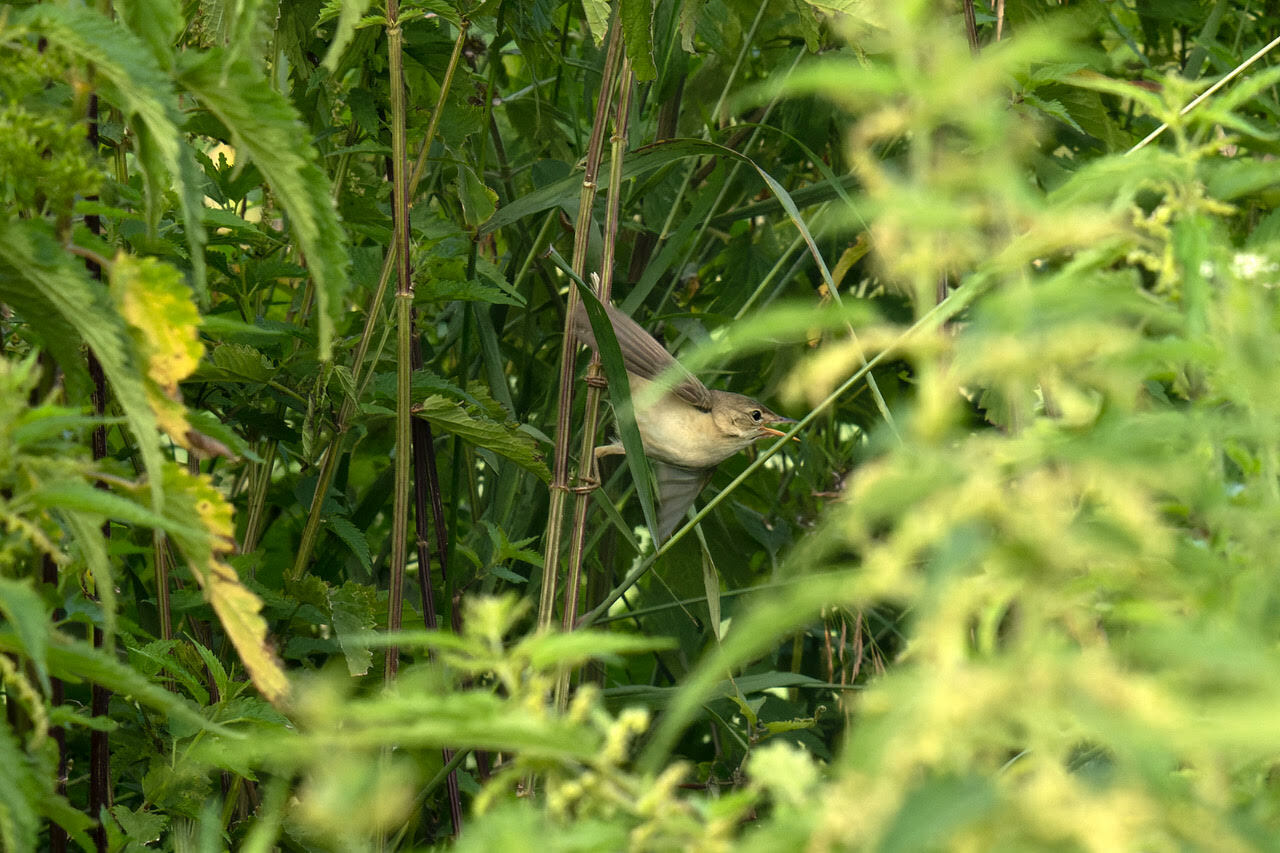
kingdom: Animalia
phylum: Chordata
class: Aves
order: Passeriformes
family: Acrocephalidae
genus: Acrocephalus
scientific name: Acrocephalus palustris
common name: Marsh warbler
